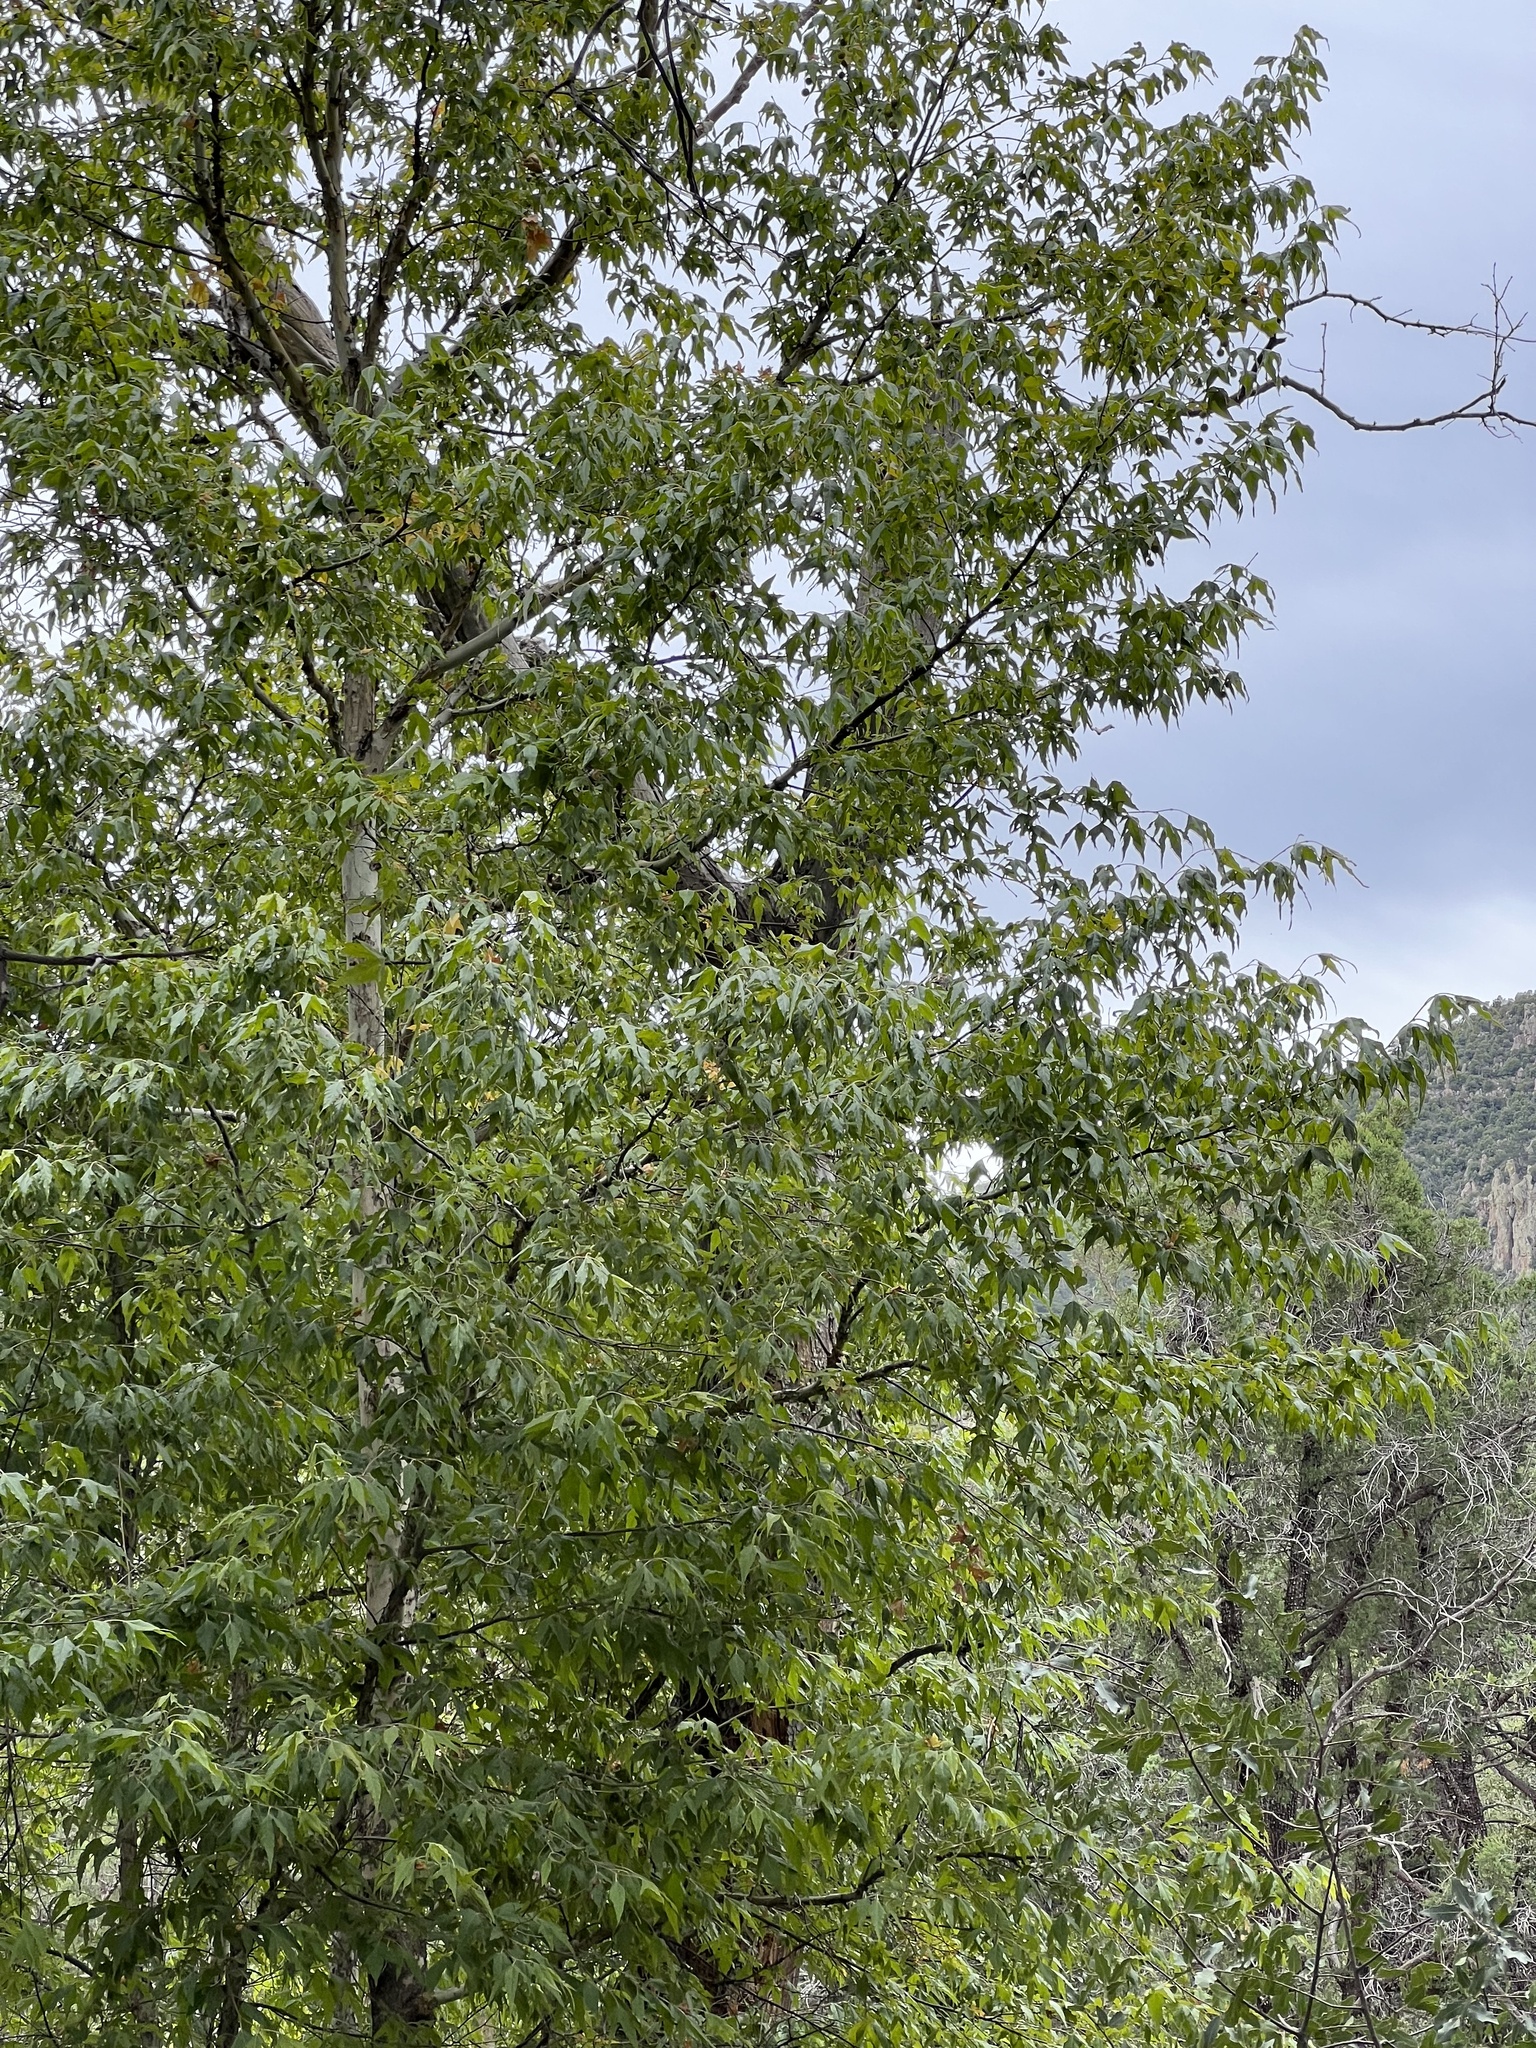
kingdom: Plantae
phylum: Tracheophyta
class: Magnoliopsida
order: Proteales
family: Platanaceae
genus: Platanus
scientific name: Platanus wrightii
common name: Arizona sycamore
